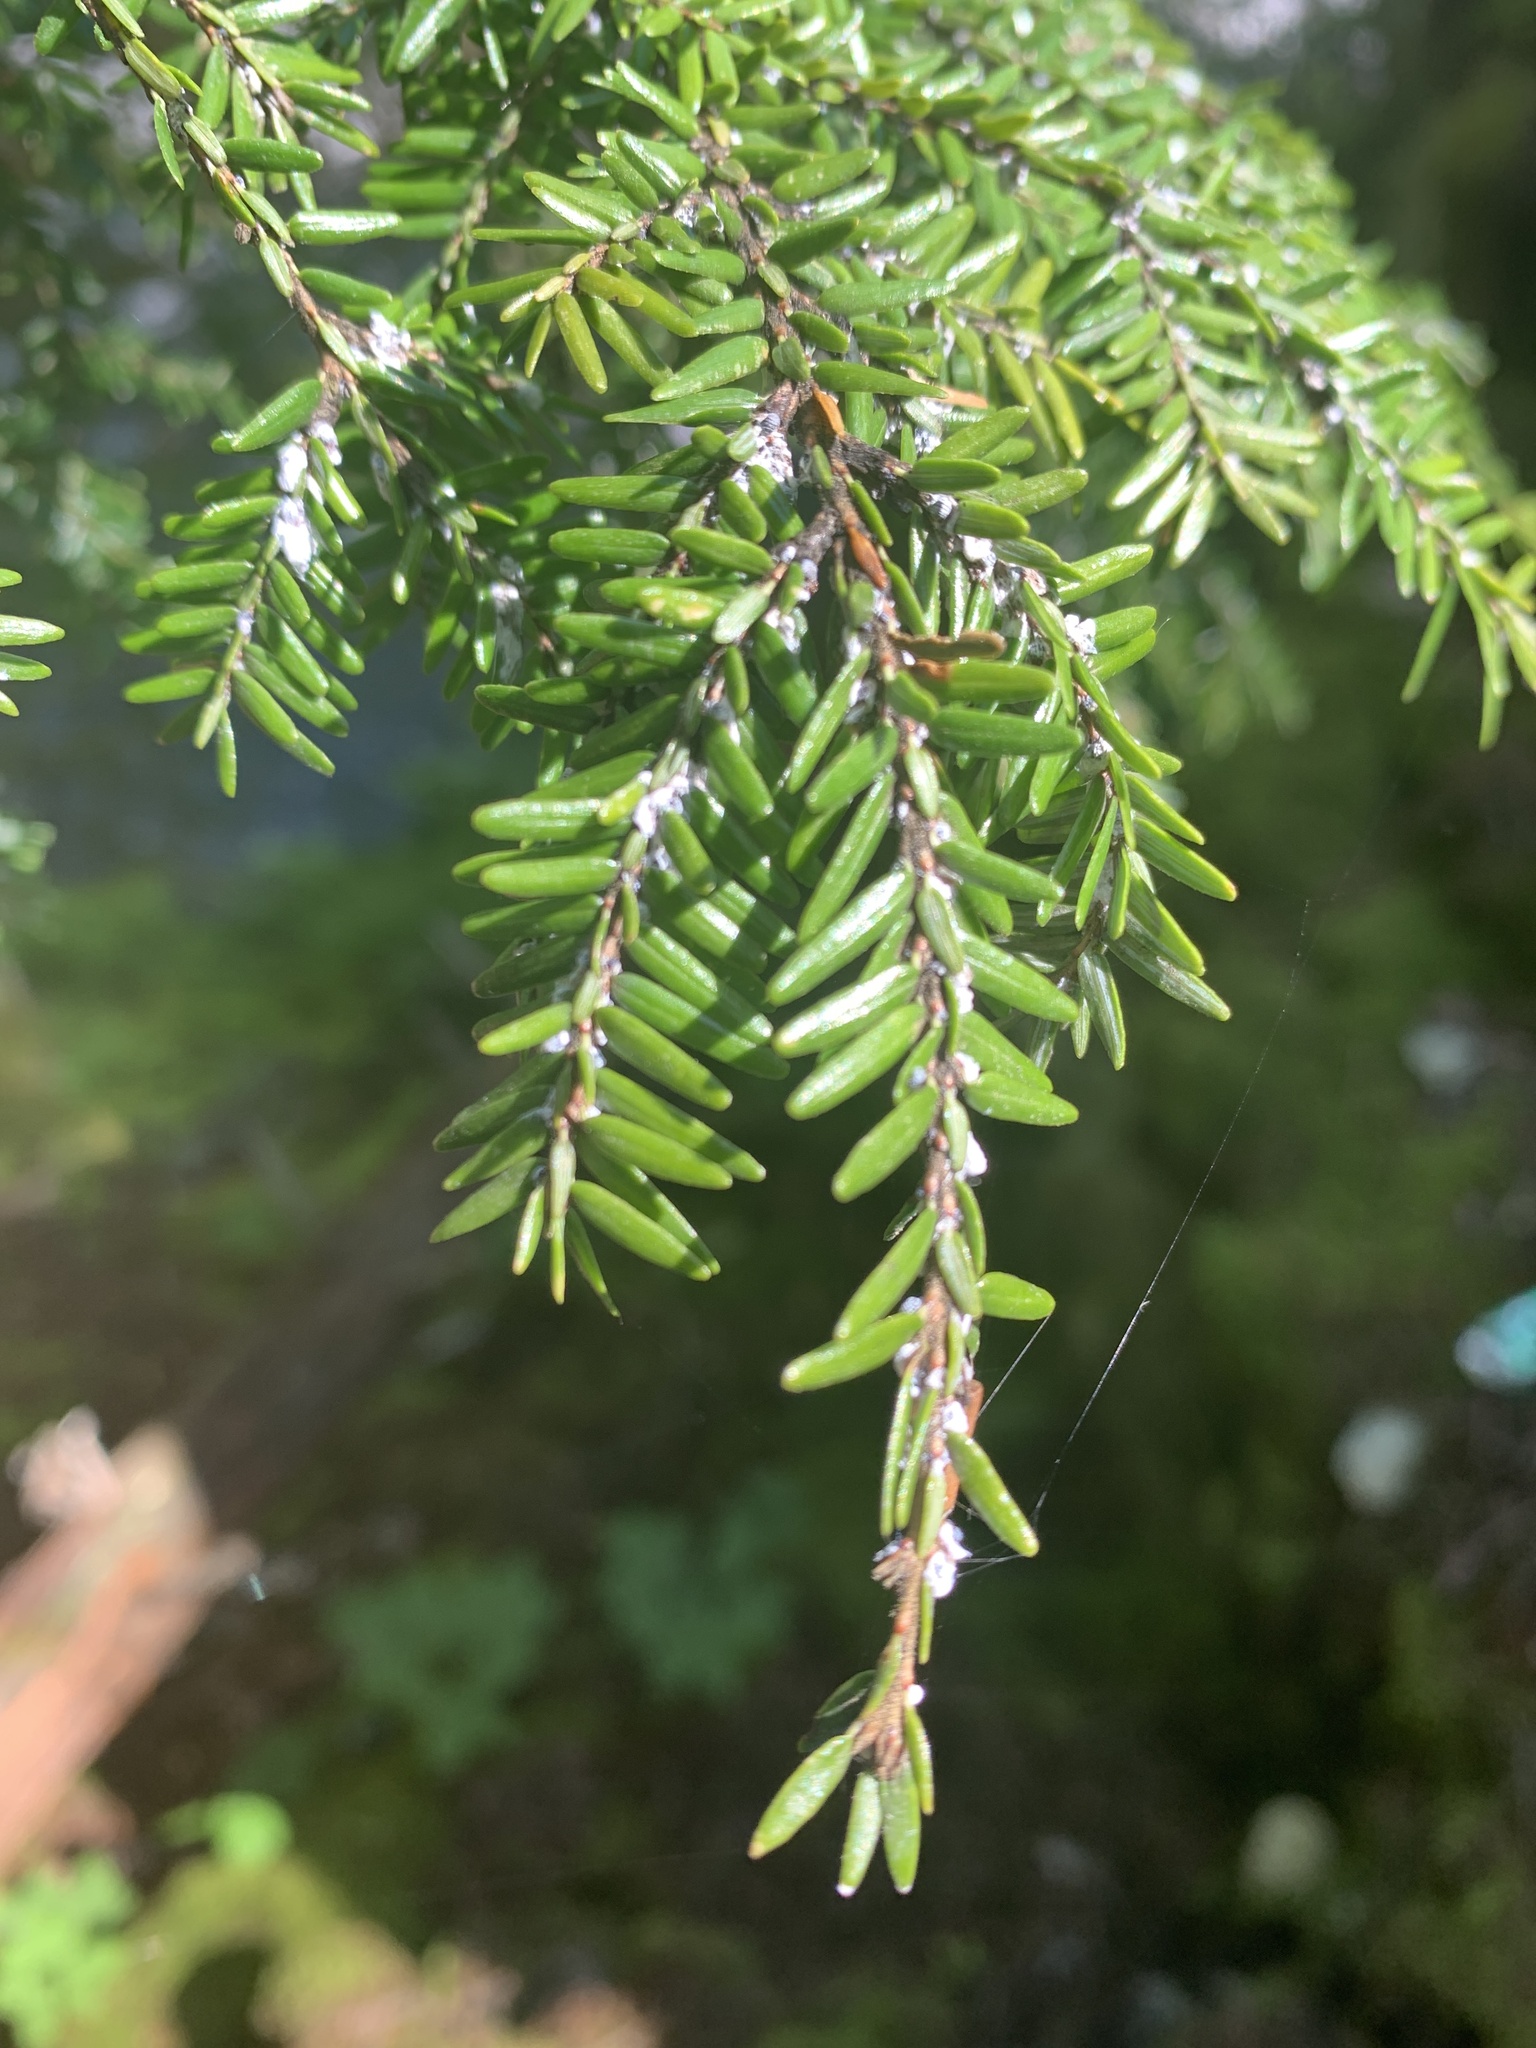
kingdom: Animalia
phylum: Arthropoda
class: Insecta
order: Hemiptera
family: Adelgidae
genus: Adelges
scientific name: Adelges tsugae
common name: Hemlock woolly adelgid
